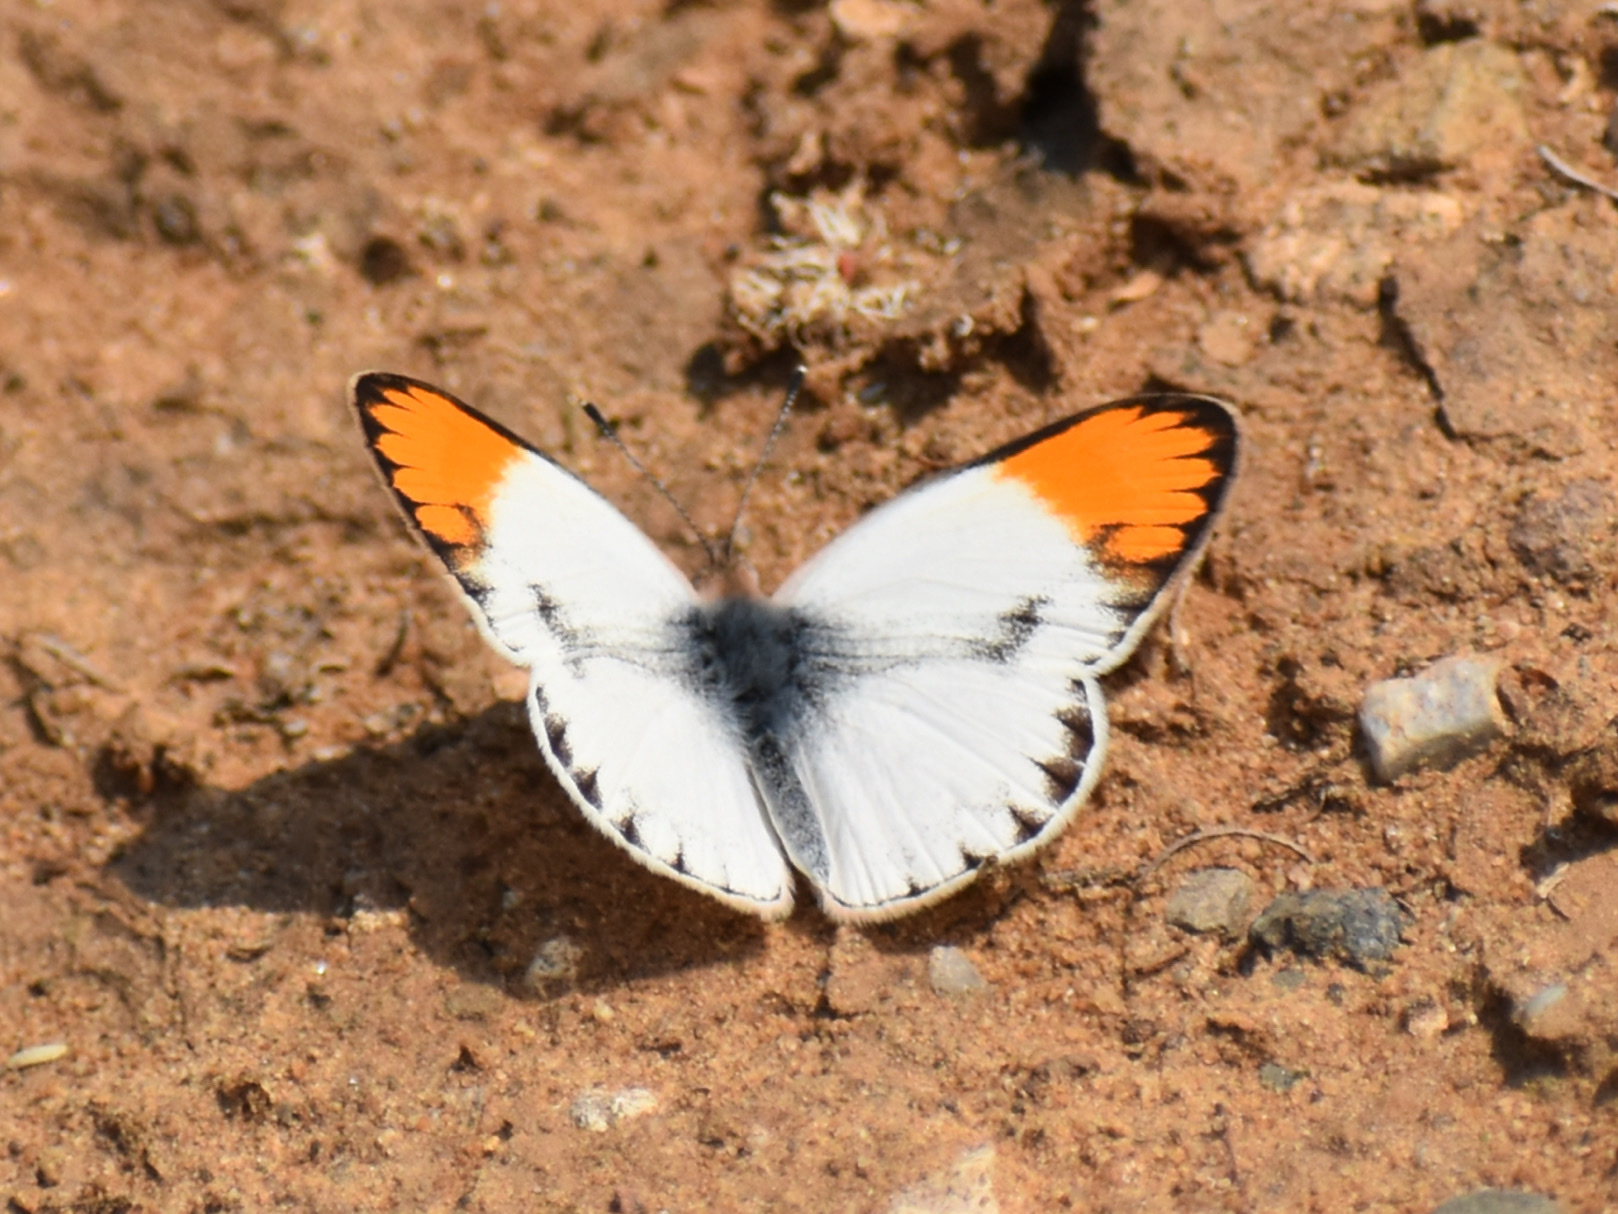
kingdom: Animalia
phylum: Arthropoda
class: Insecta
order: Lepidoptera
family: Pieridae
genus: Colotis
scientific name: Colotis antevippe
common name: Large orange tip
